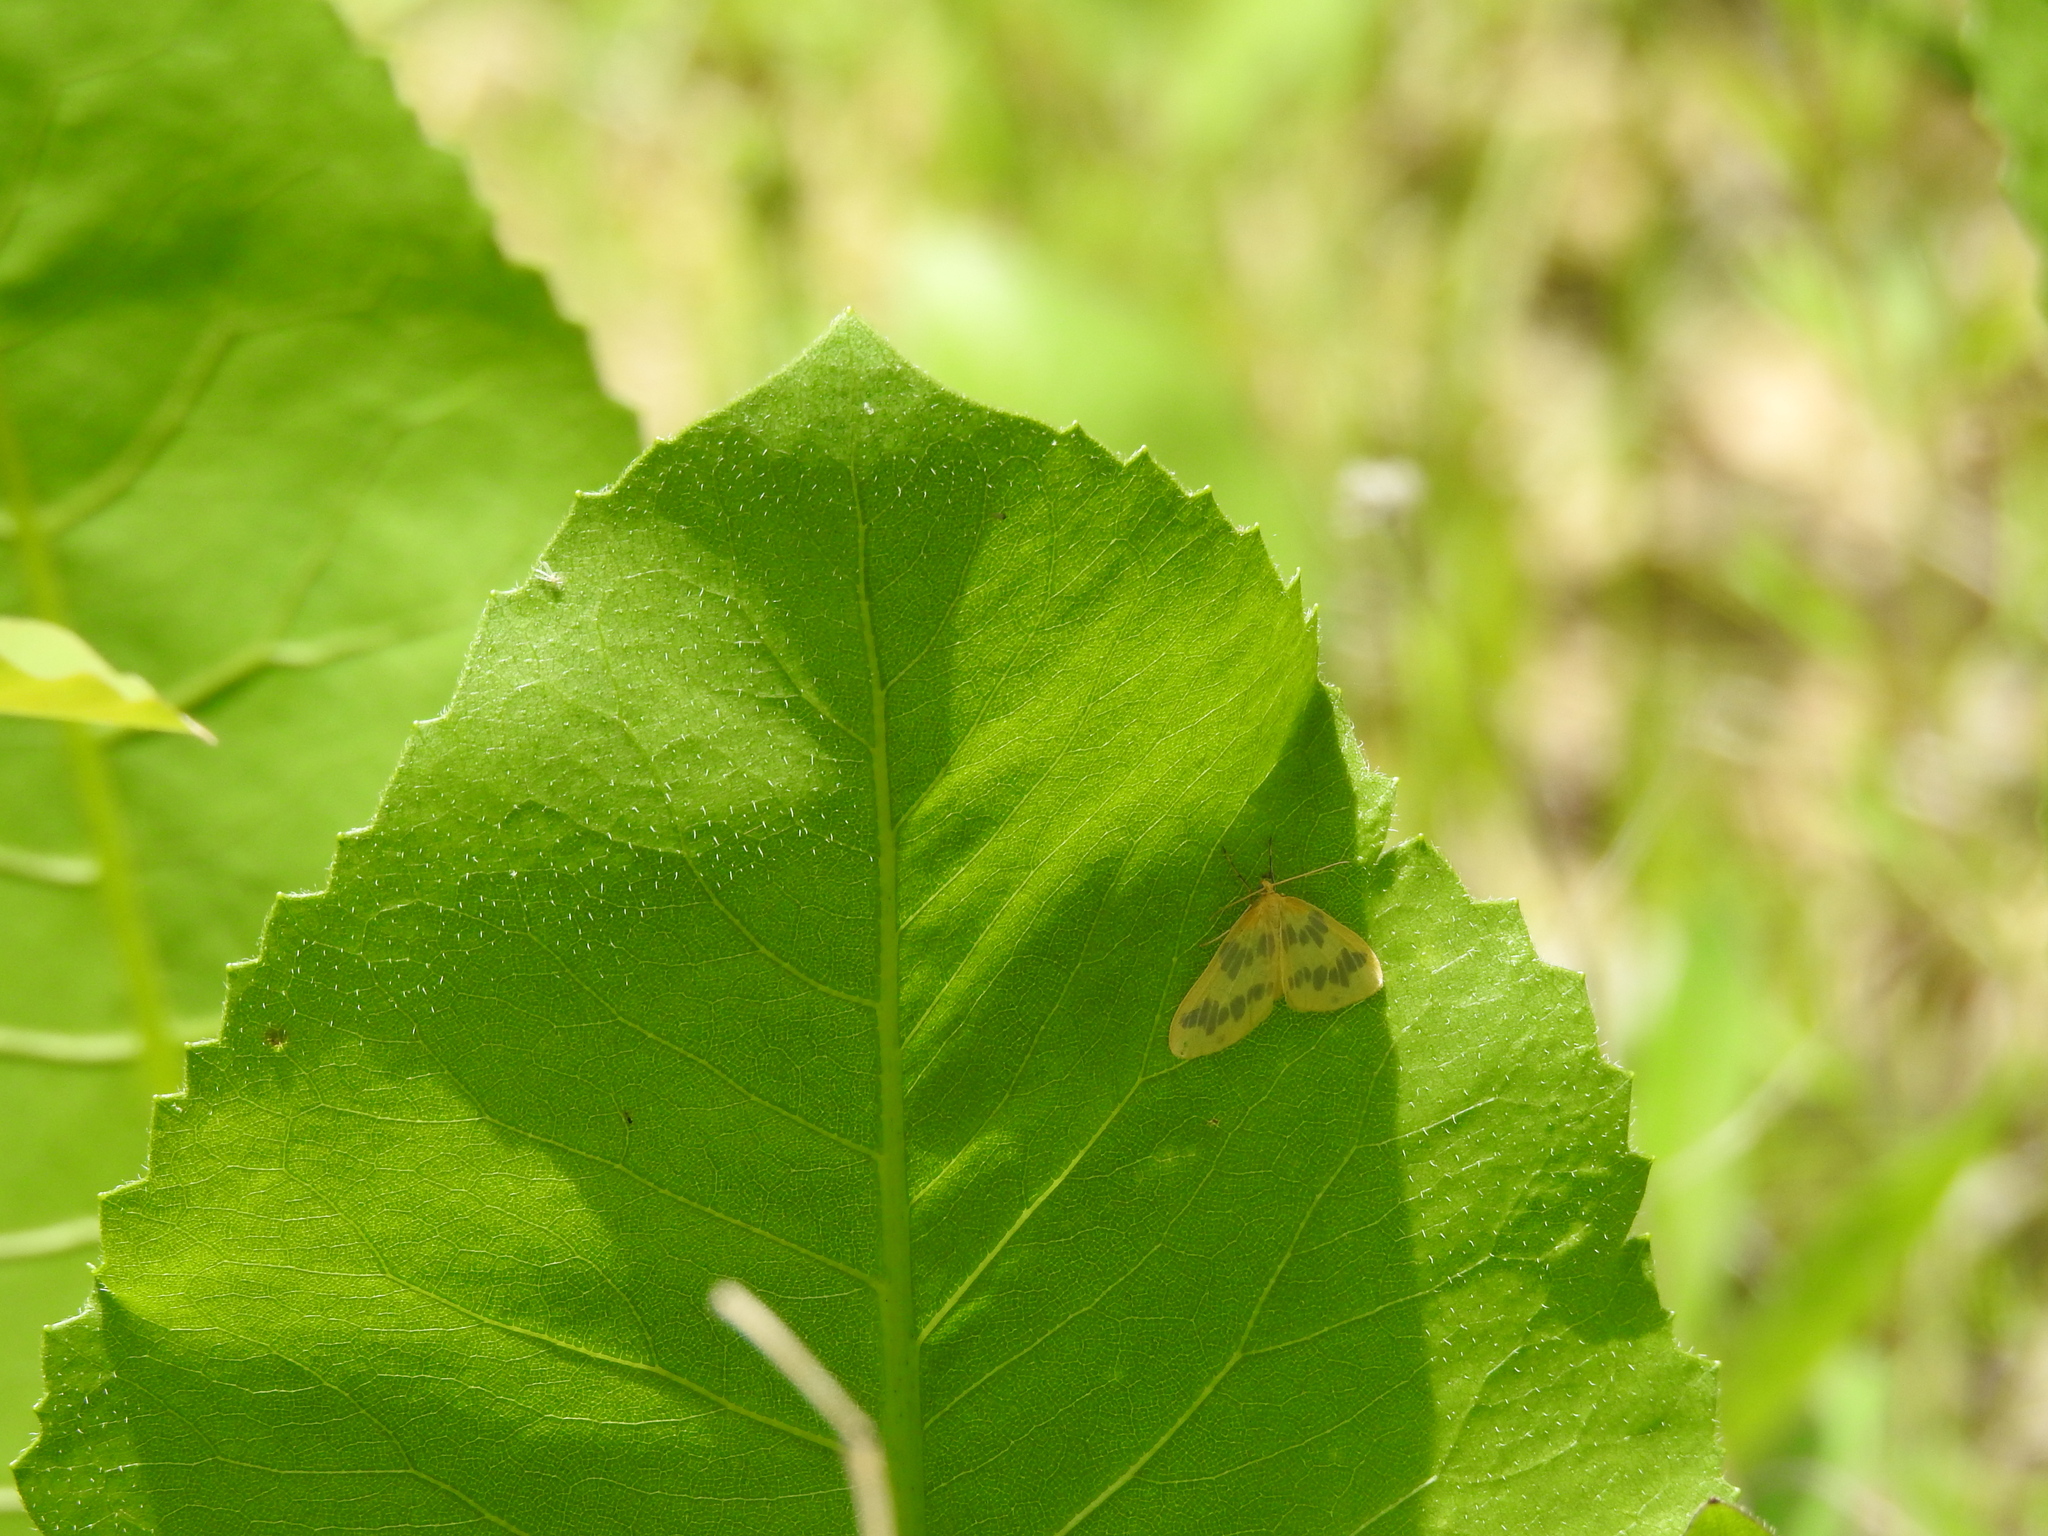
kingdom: Animalia
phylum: Arthropoda
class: Insecta
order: Lepidoptera
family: Geometridae
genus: Eubaphe
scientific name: Eubaphe mendica
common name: Beggar
